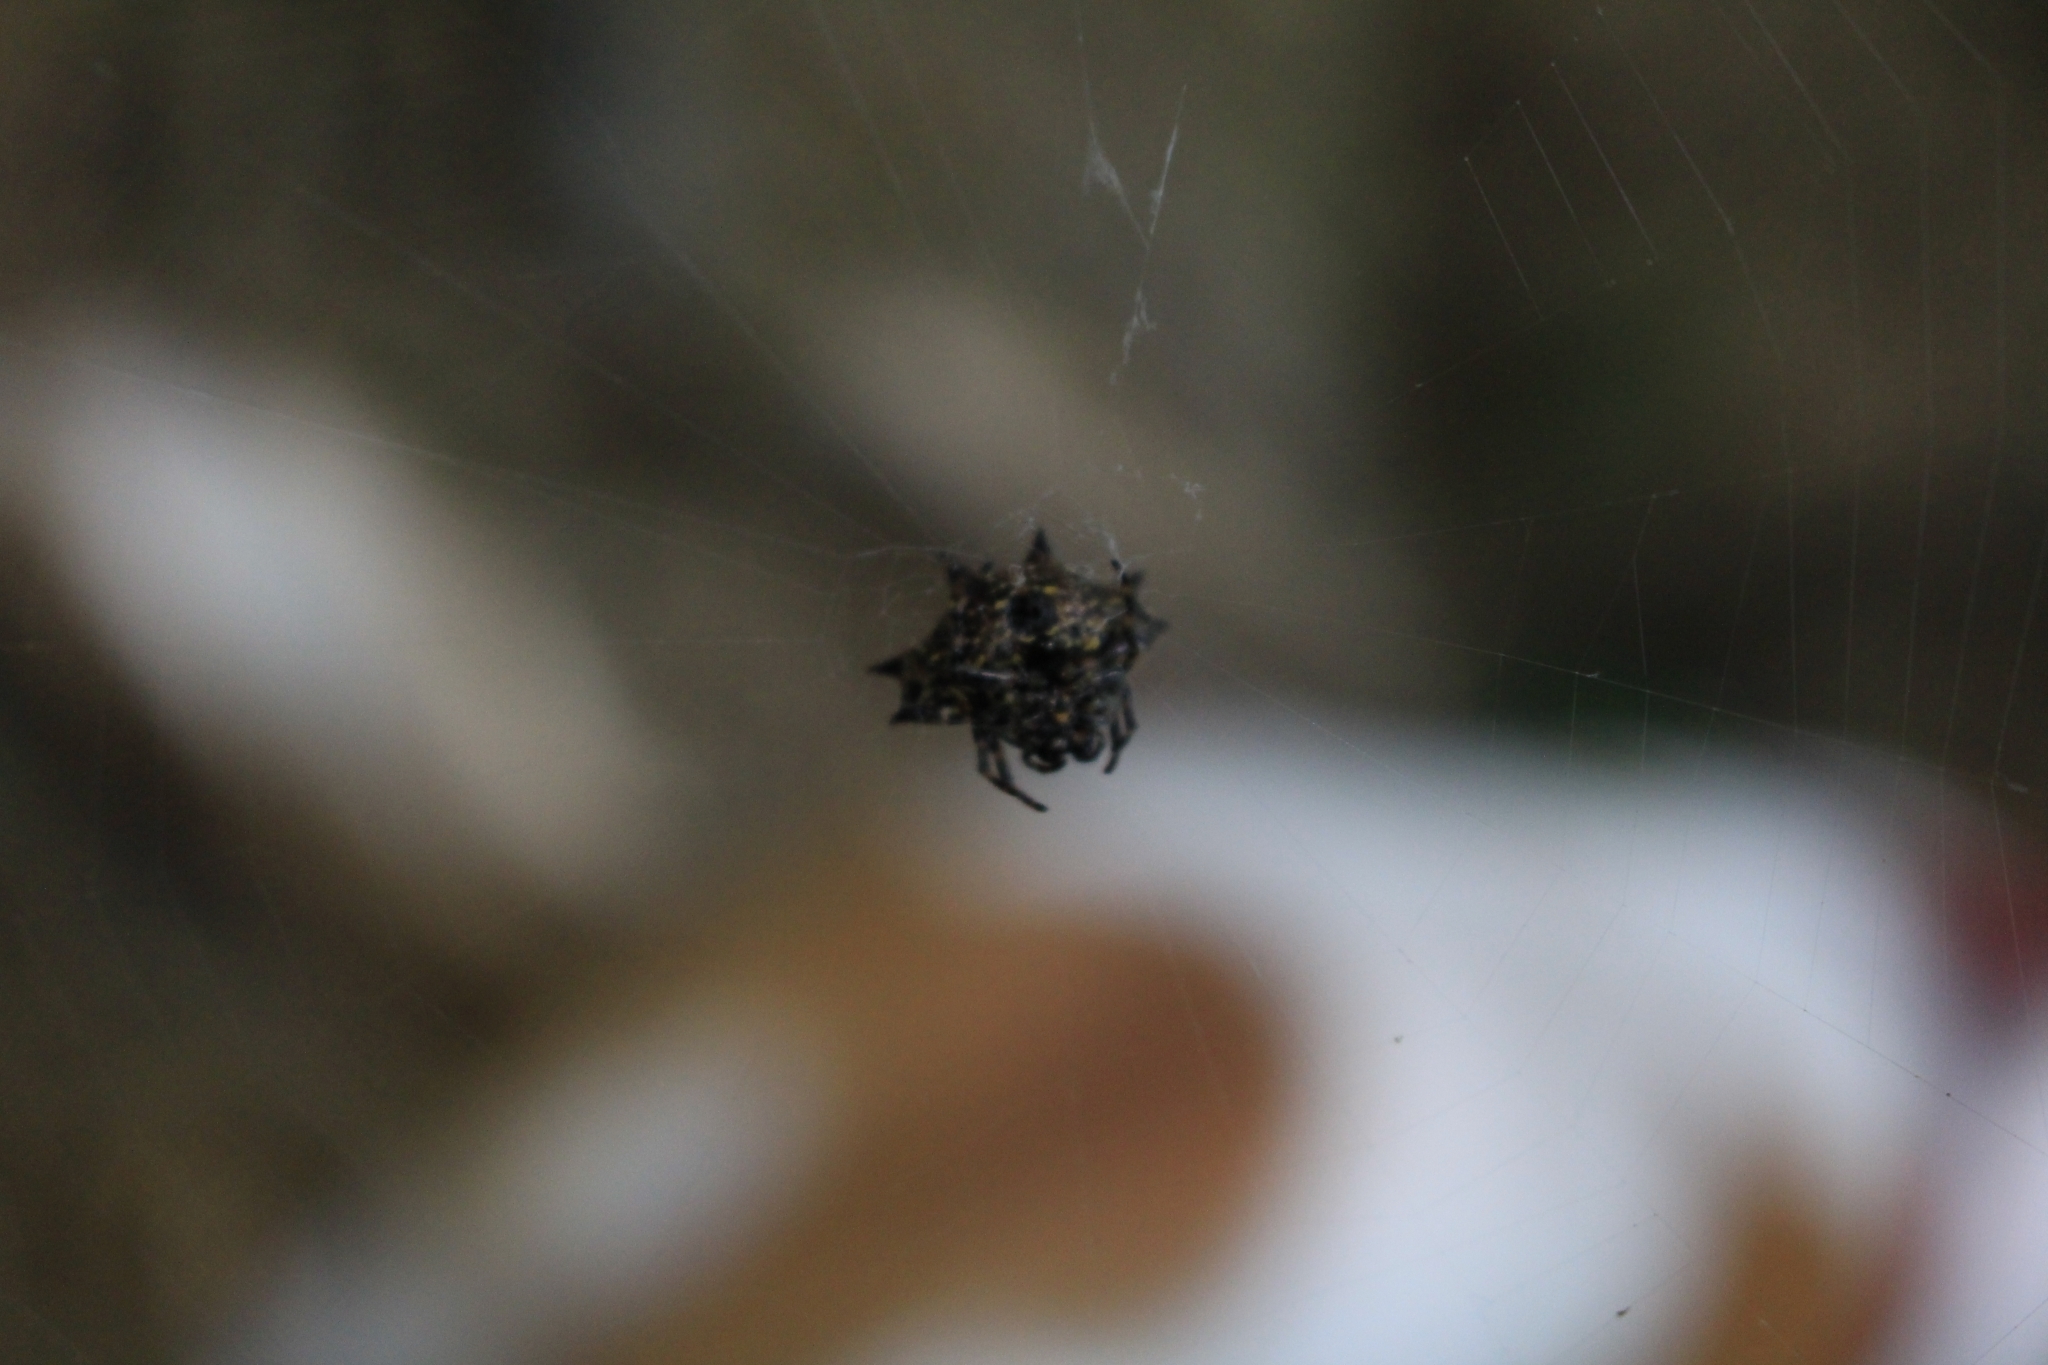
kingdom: Animalia
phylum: Arthropoda
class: Arachnida
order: Araneae
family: Araneidae
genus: Gasteracantha
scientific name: Gasteracantha cancriformis
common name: Orb weavers
